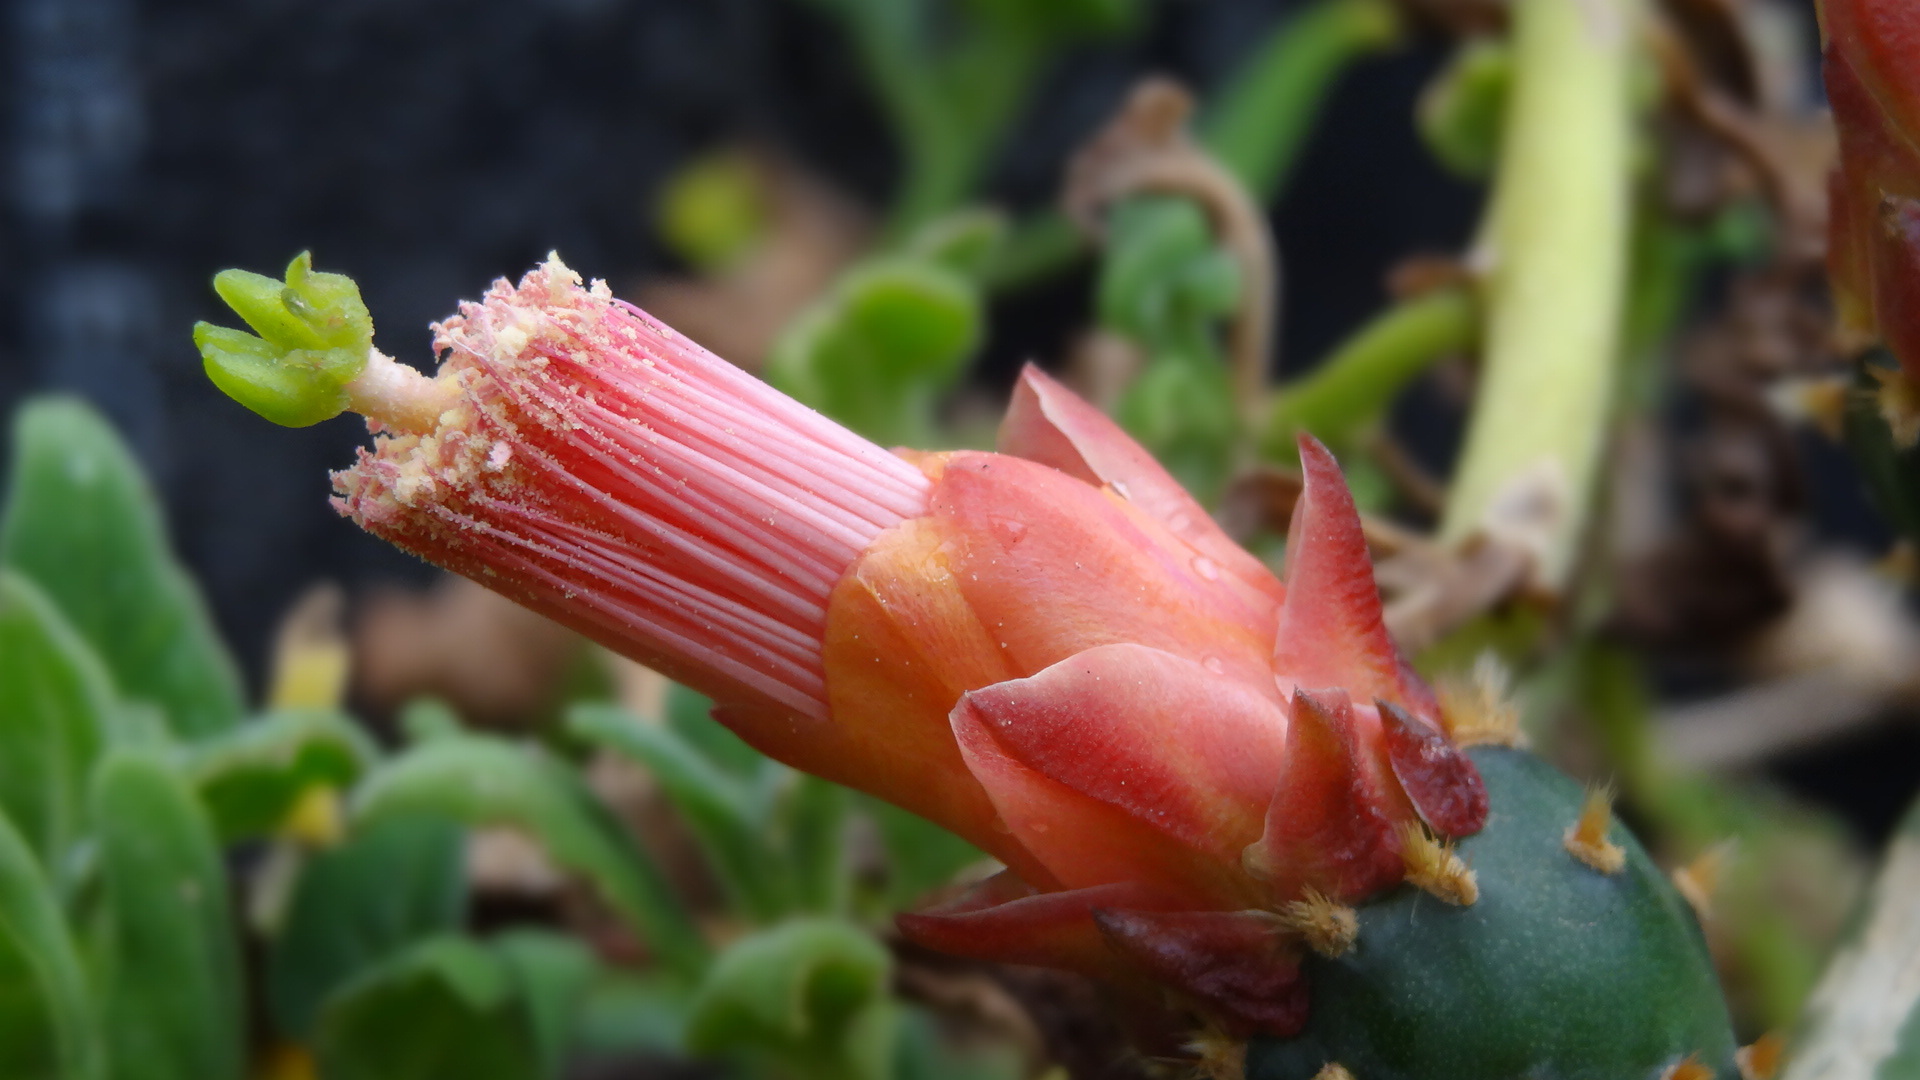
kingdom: Plantae
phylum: Tracheophyta
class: Magnoliopsida
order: Caryophyllales
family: Cactaceae
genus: Opuntia
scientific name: Opuntia cochenillifera
